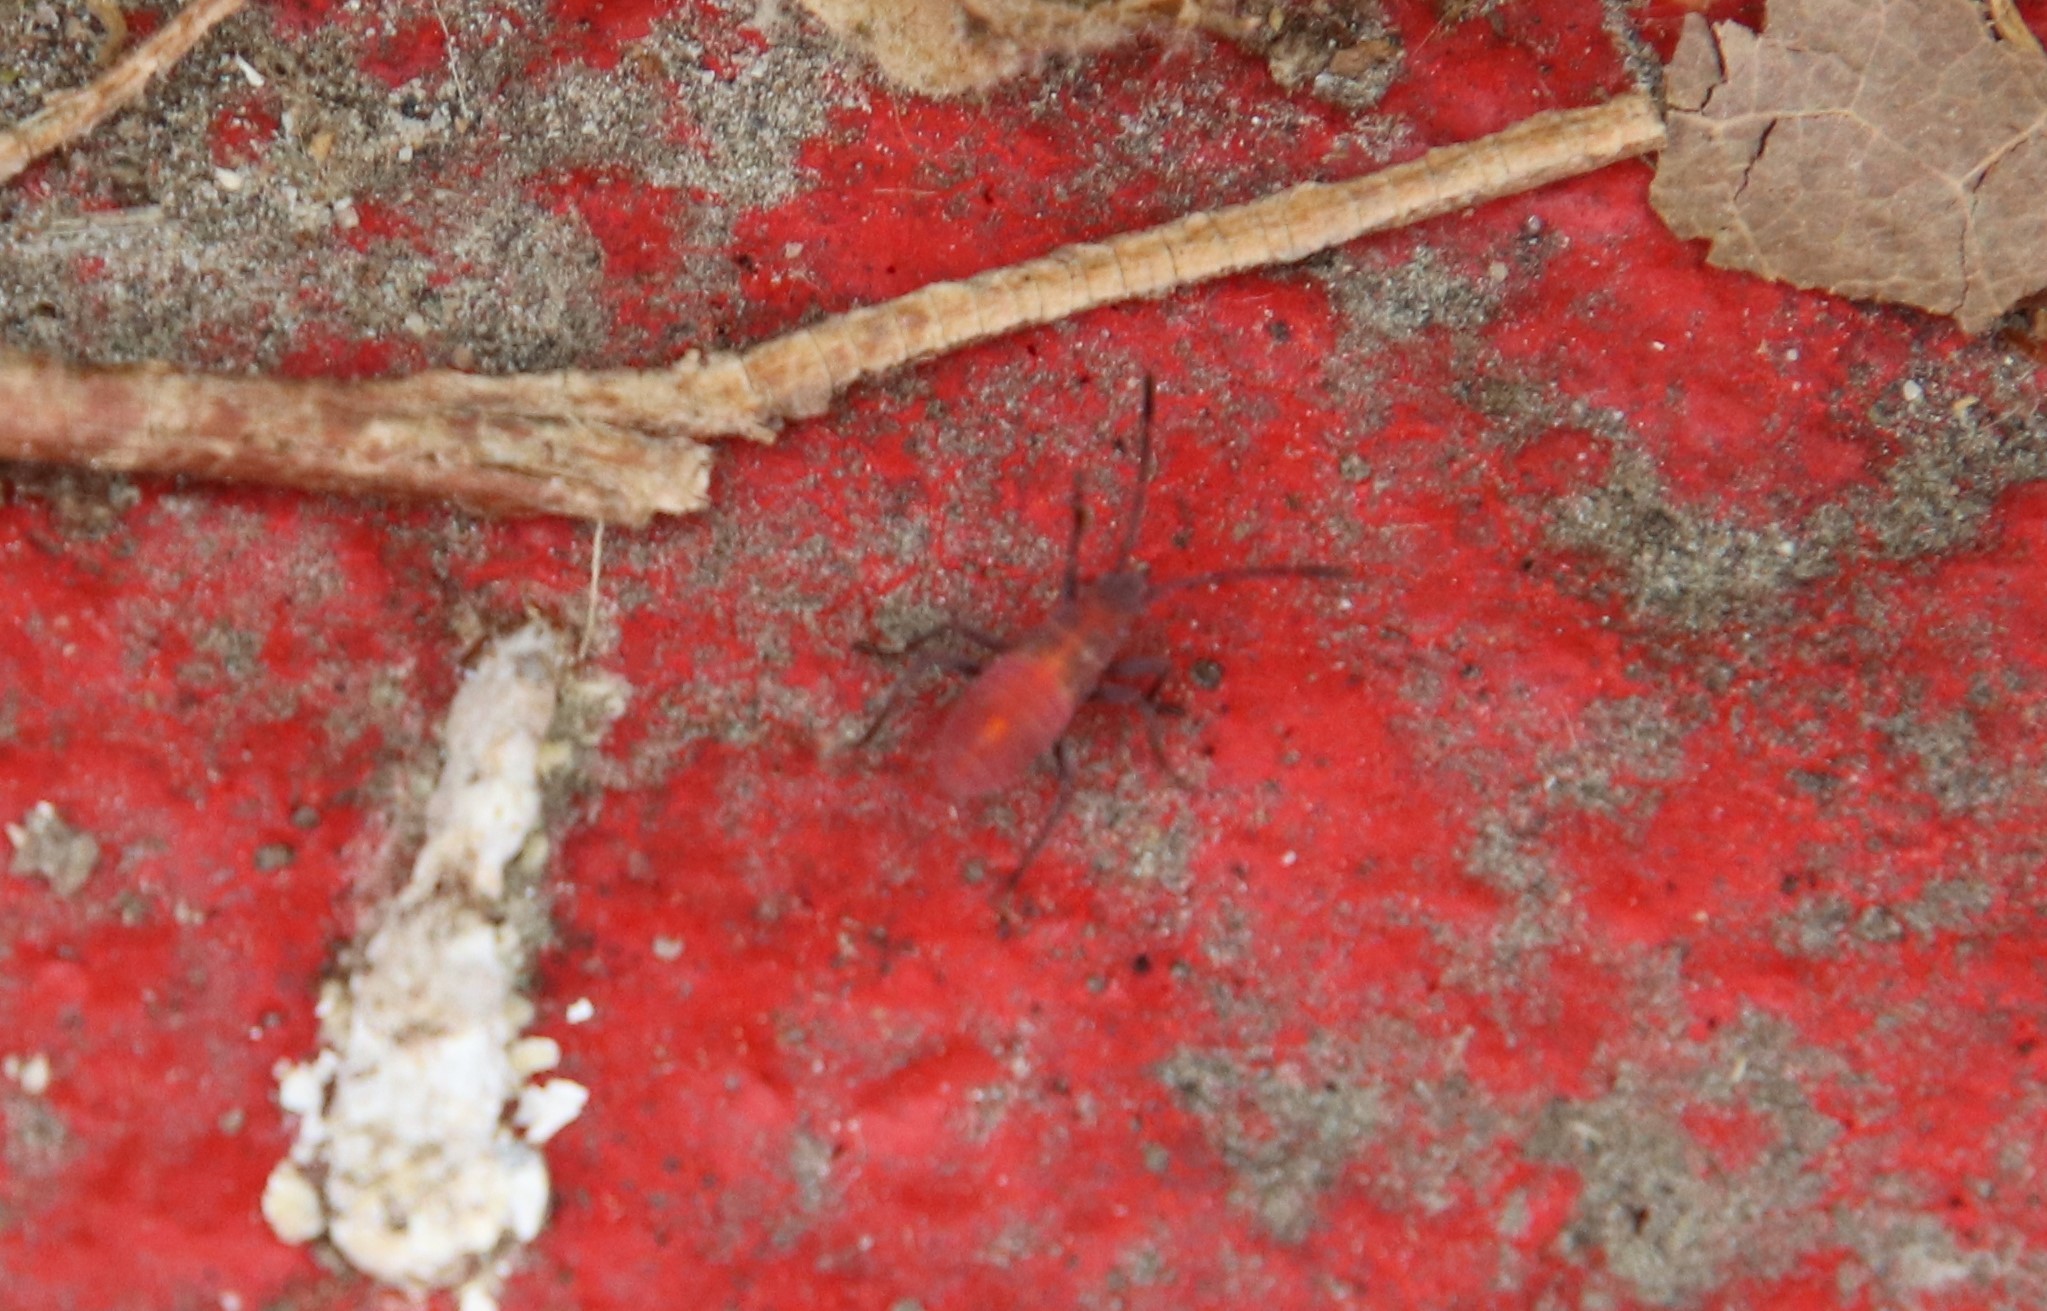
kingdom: Animalia
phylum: Arthropoda
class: Insecta
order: Hemiptera
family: Rhopalidae
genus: Boisea
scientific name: Boisea rubrolineata
